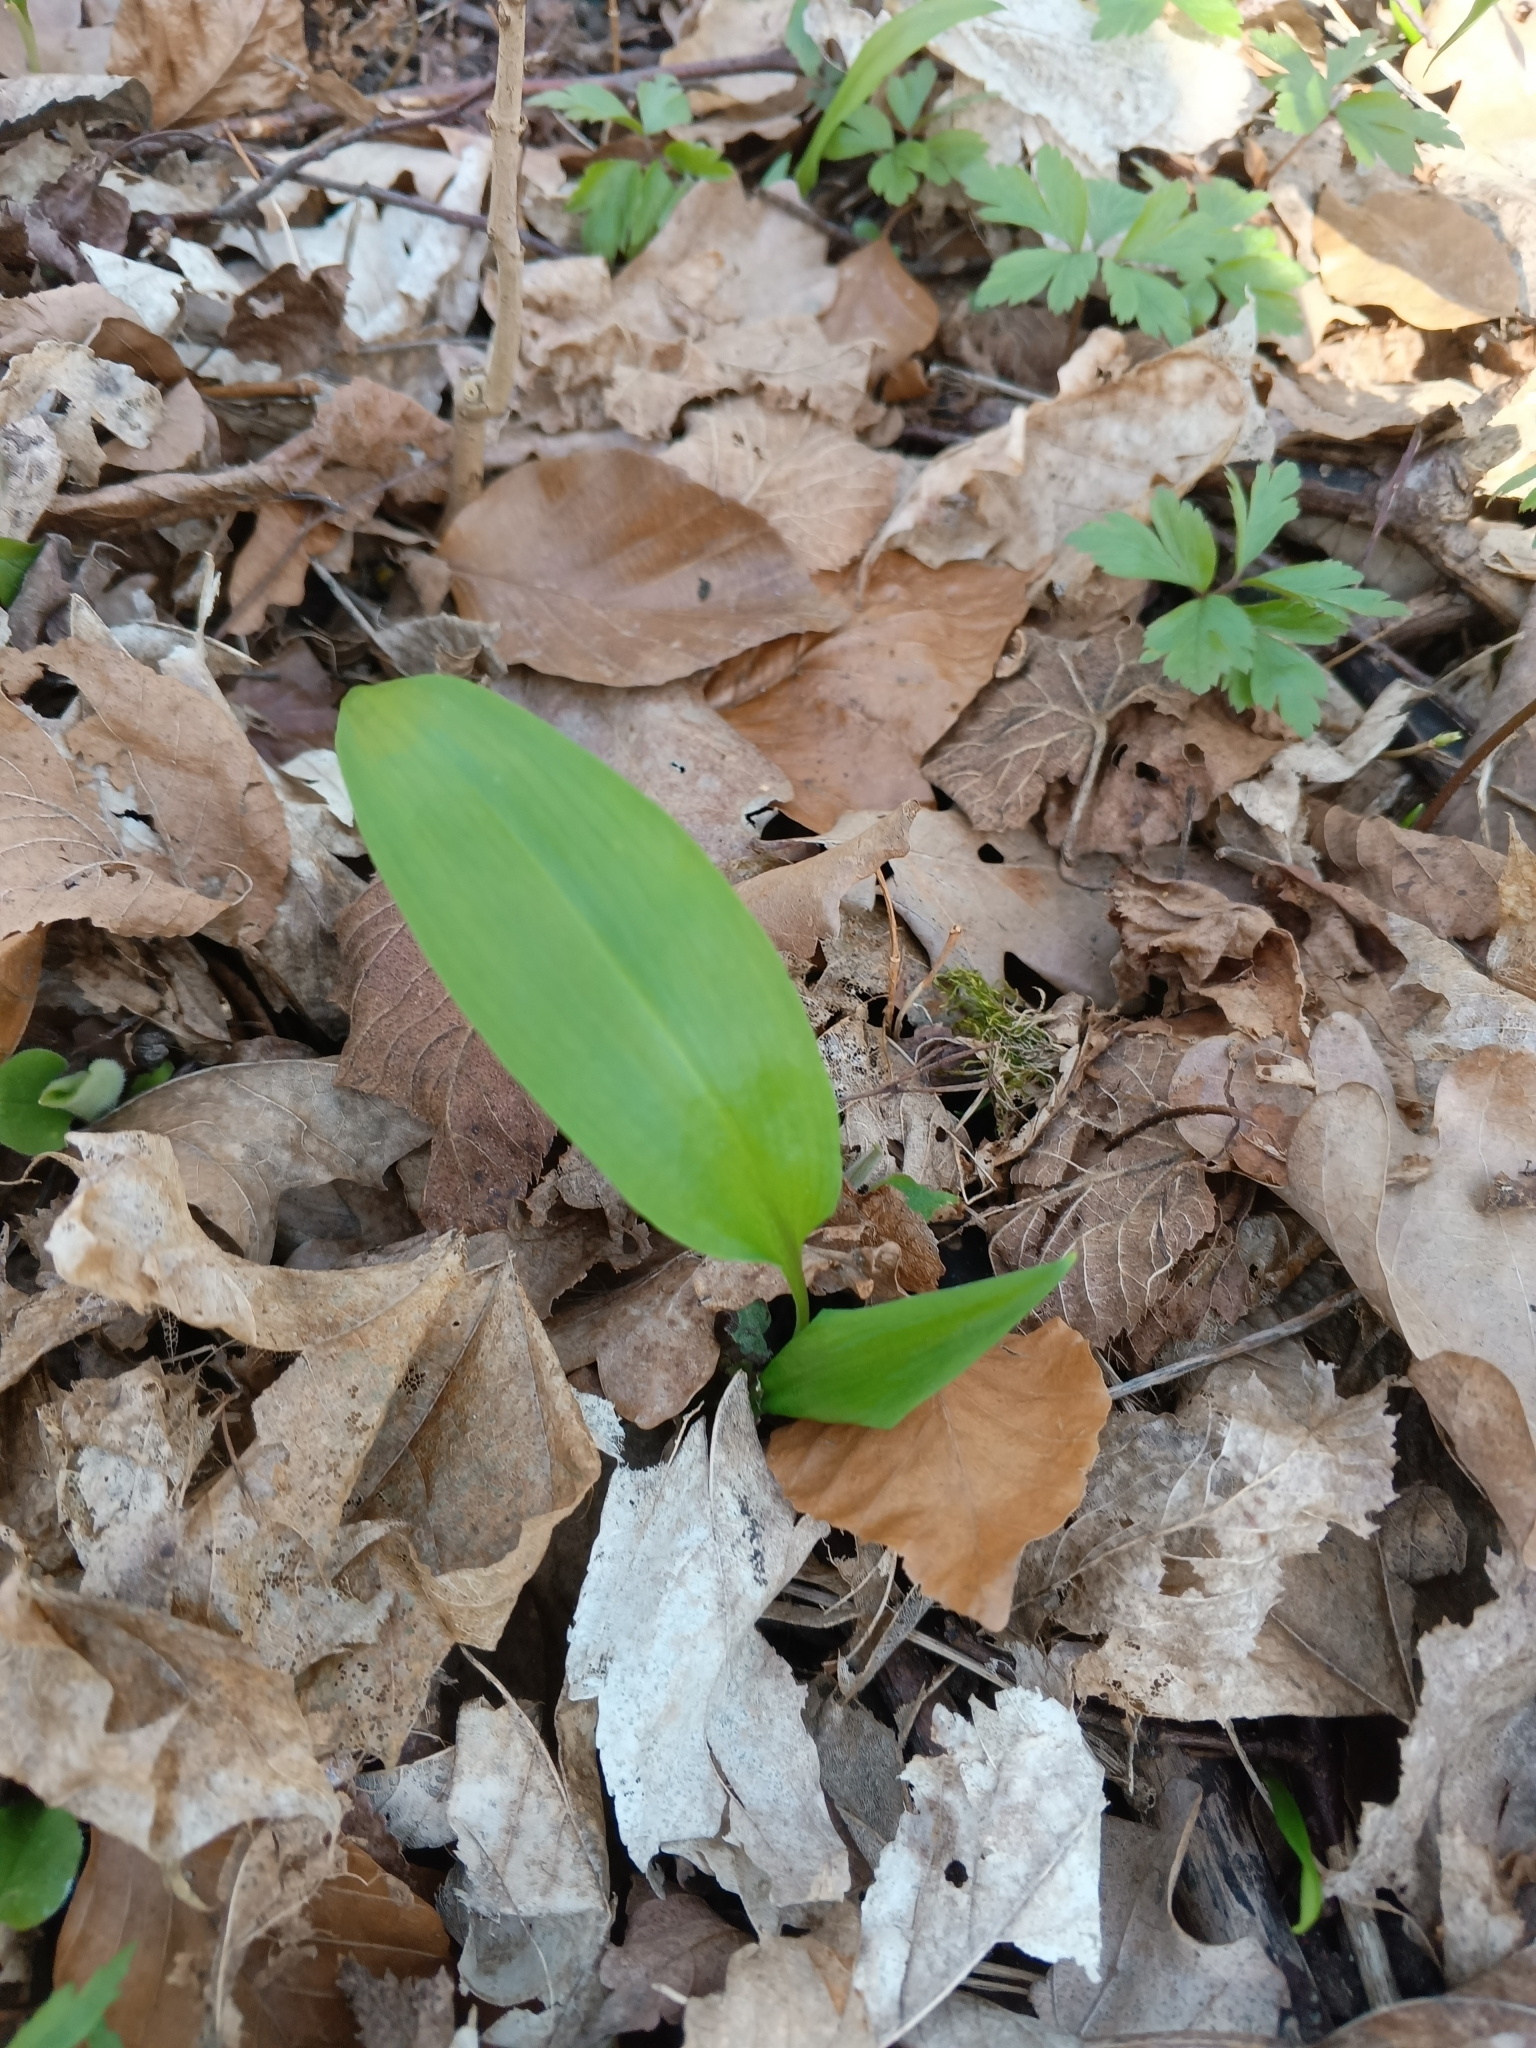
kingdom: Plantae
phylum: Tracheophyta
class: Liliopsida
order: Asparagales
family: Amaryllidaceae
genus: Allium
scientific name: Allium ursinum
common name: Ramsons
